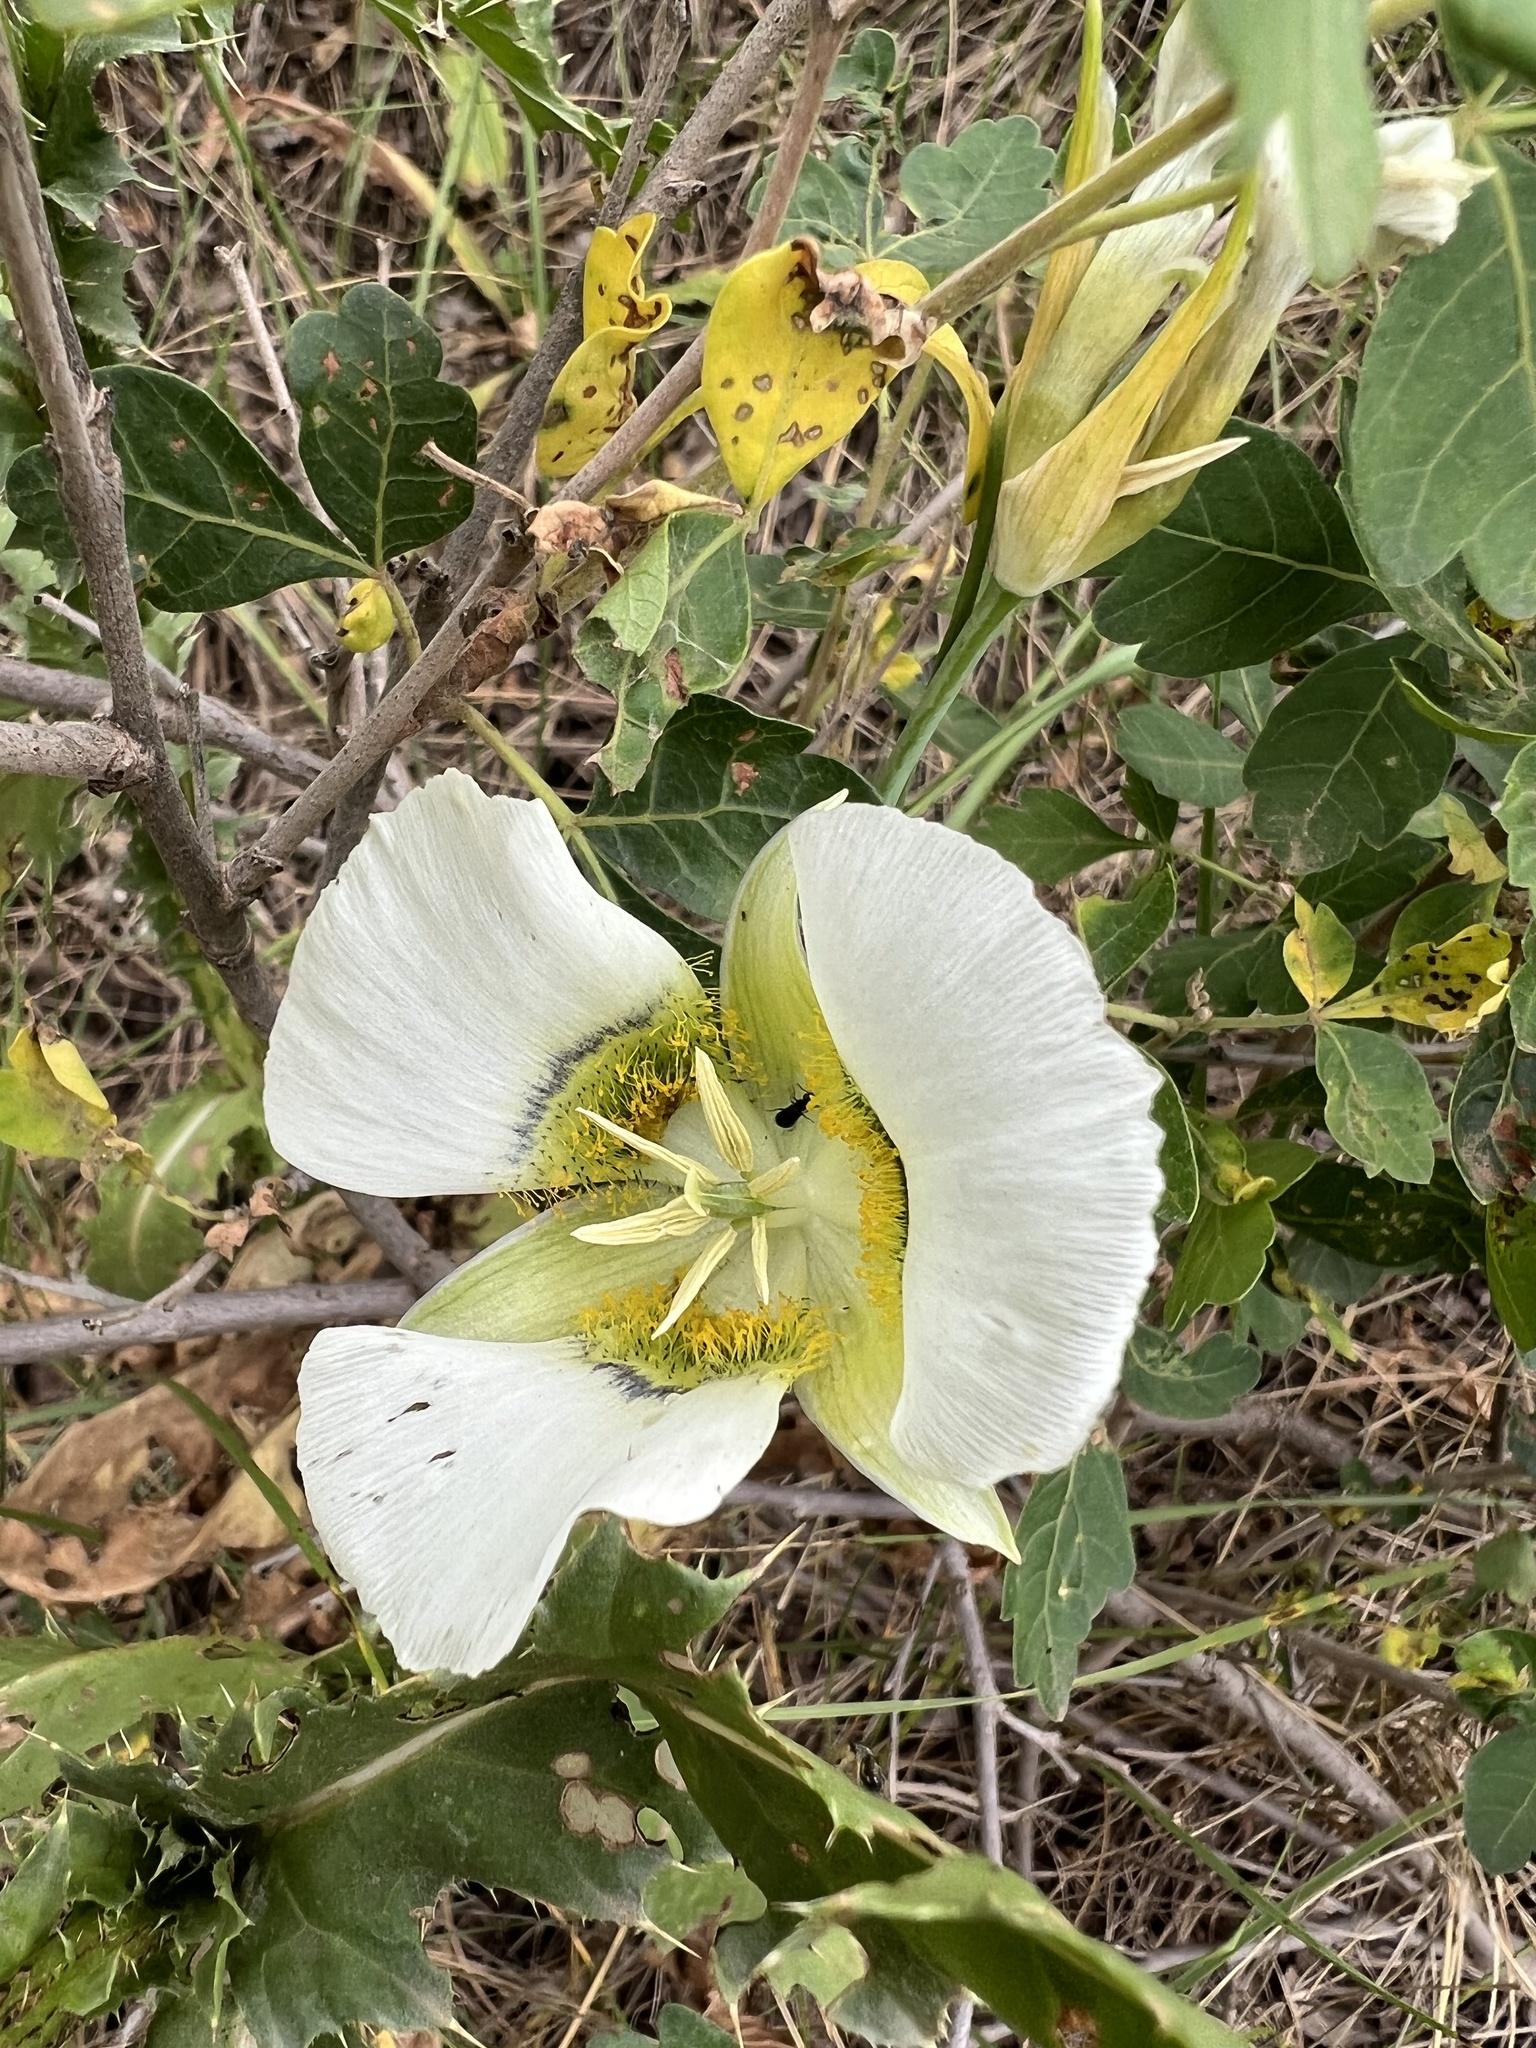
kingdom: Plantae
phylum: Tracheophyta
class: Liliopsida
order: Liliales
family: Liliaceae
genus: Calochortus
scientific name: Calochortus gunnisonii
